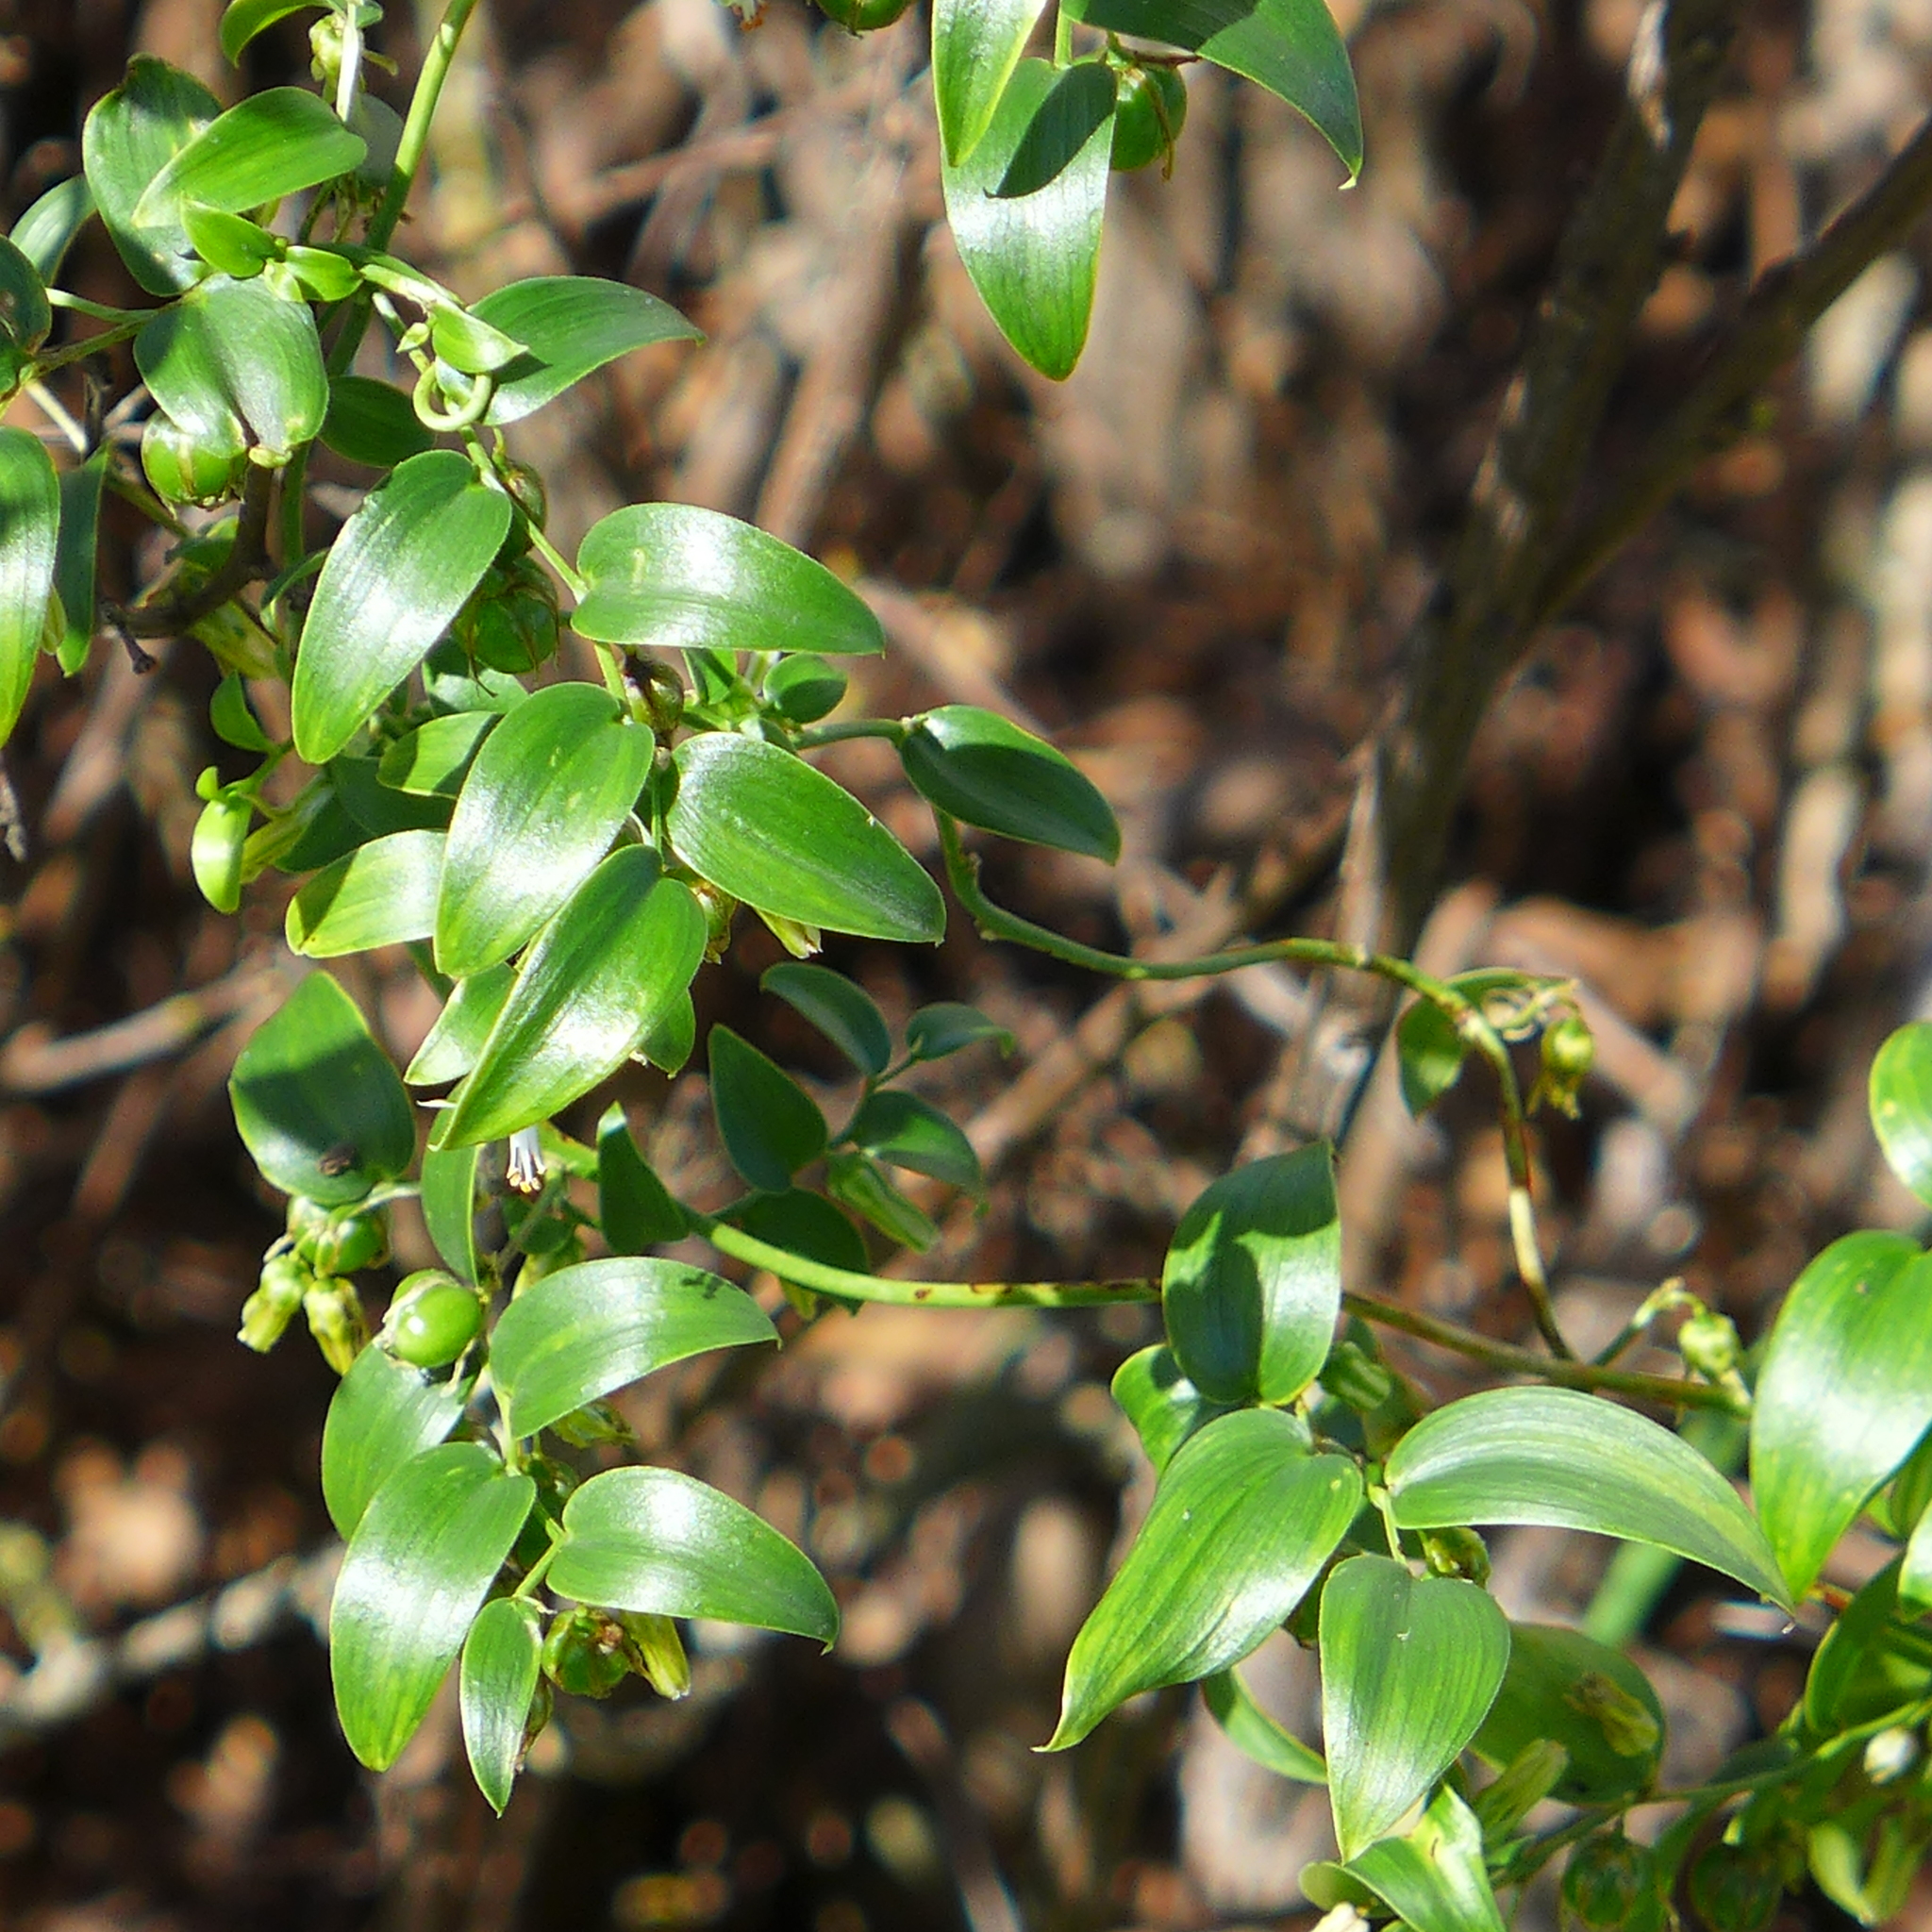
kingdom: Plantae
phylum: Tracheophyta
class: Liliopsida
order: Asparagales
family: Asparagaceae
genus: Asparagus
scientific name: Asparagus asparagoides
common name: African asparagus fern
